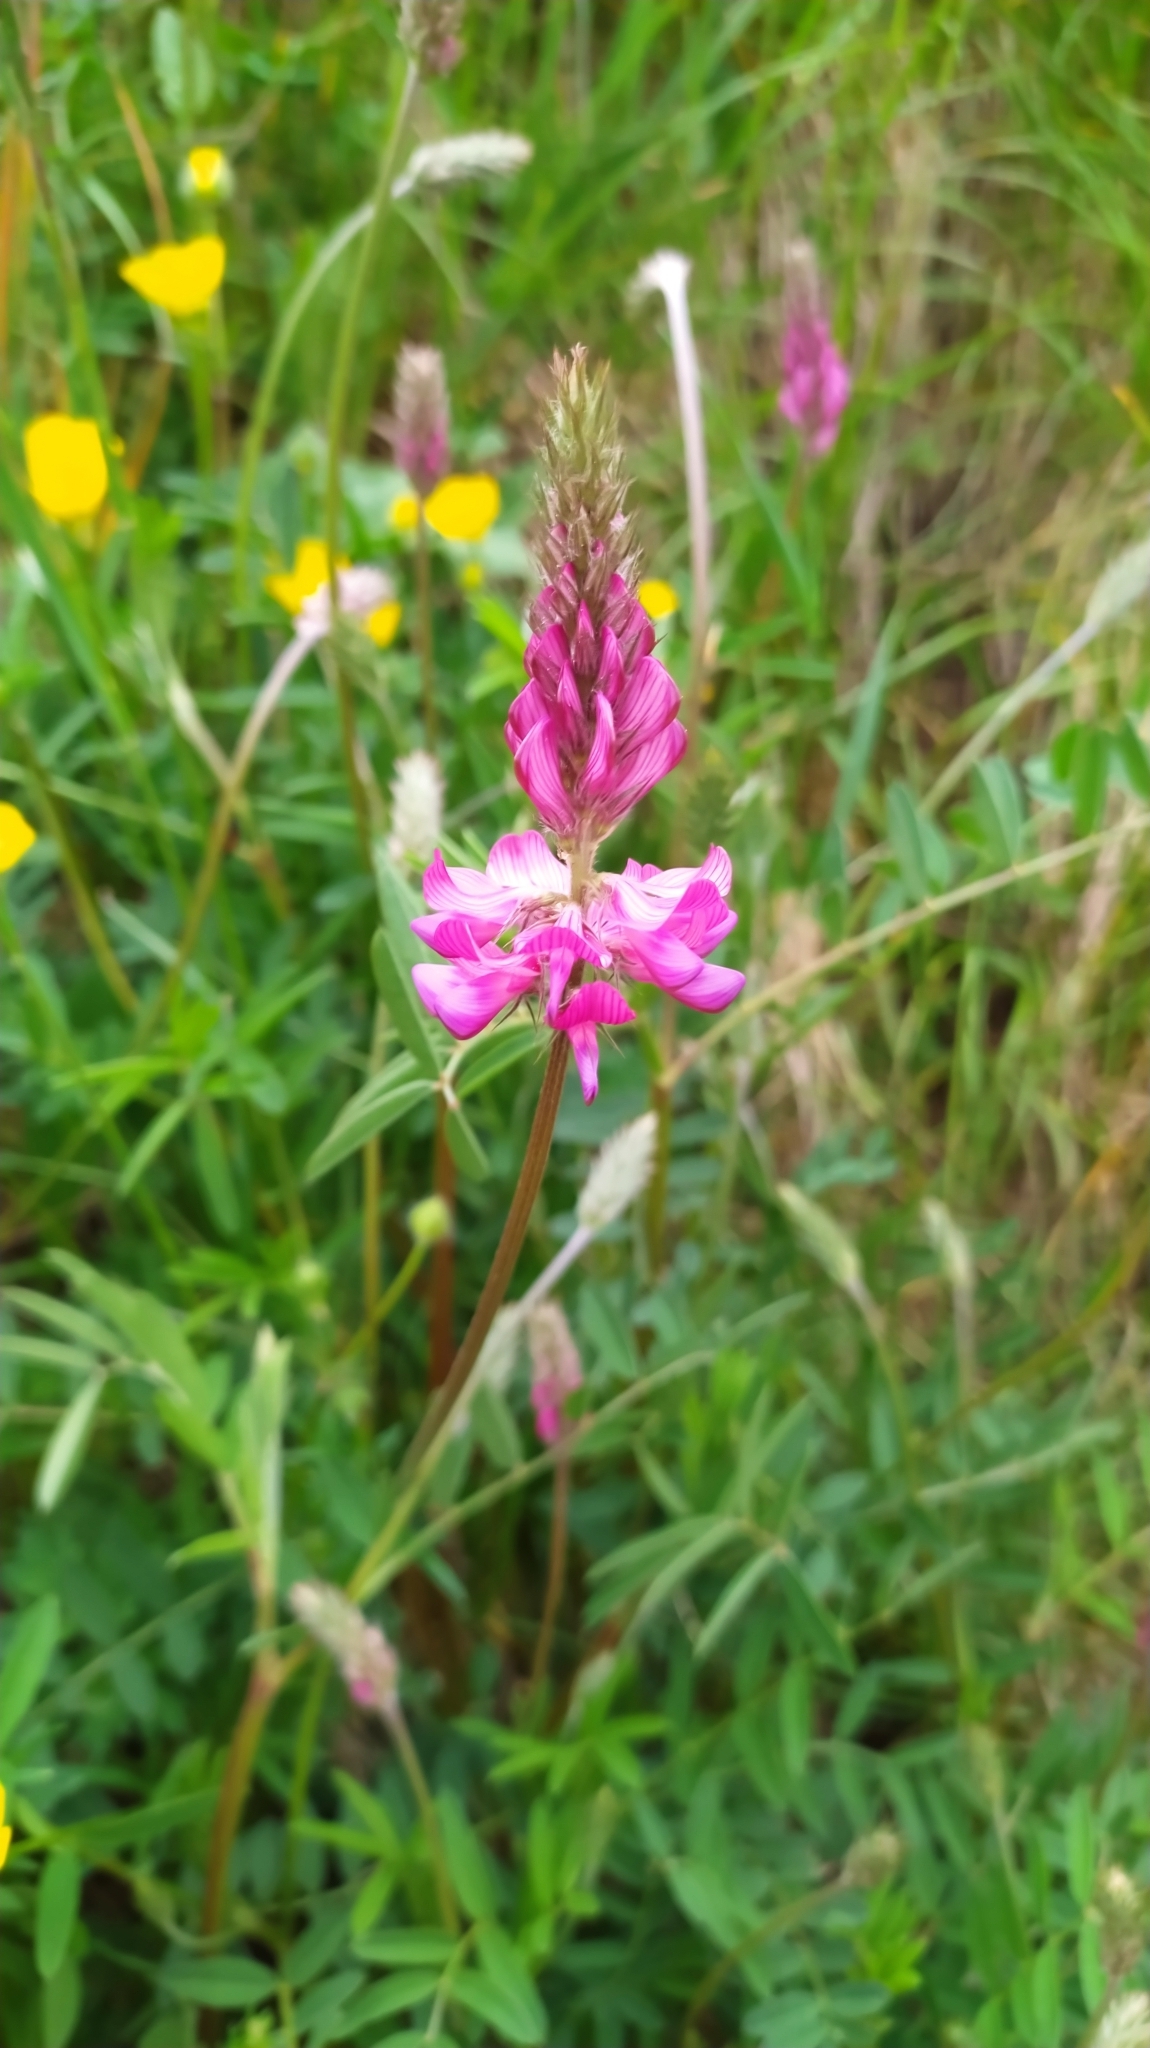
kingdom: Plantae
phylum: Tracheophyta
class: Magnoliopsida
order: Fabales
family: Fabaceae
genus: Onobrychis
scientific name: Onobrychis viciifolia
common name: Sainfoin
